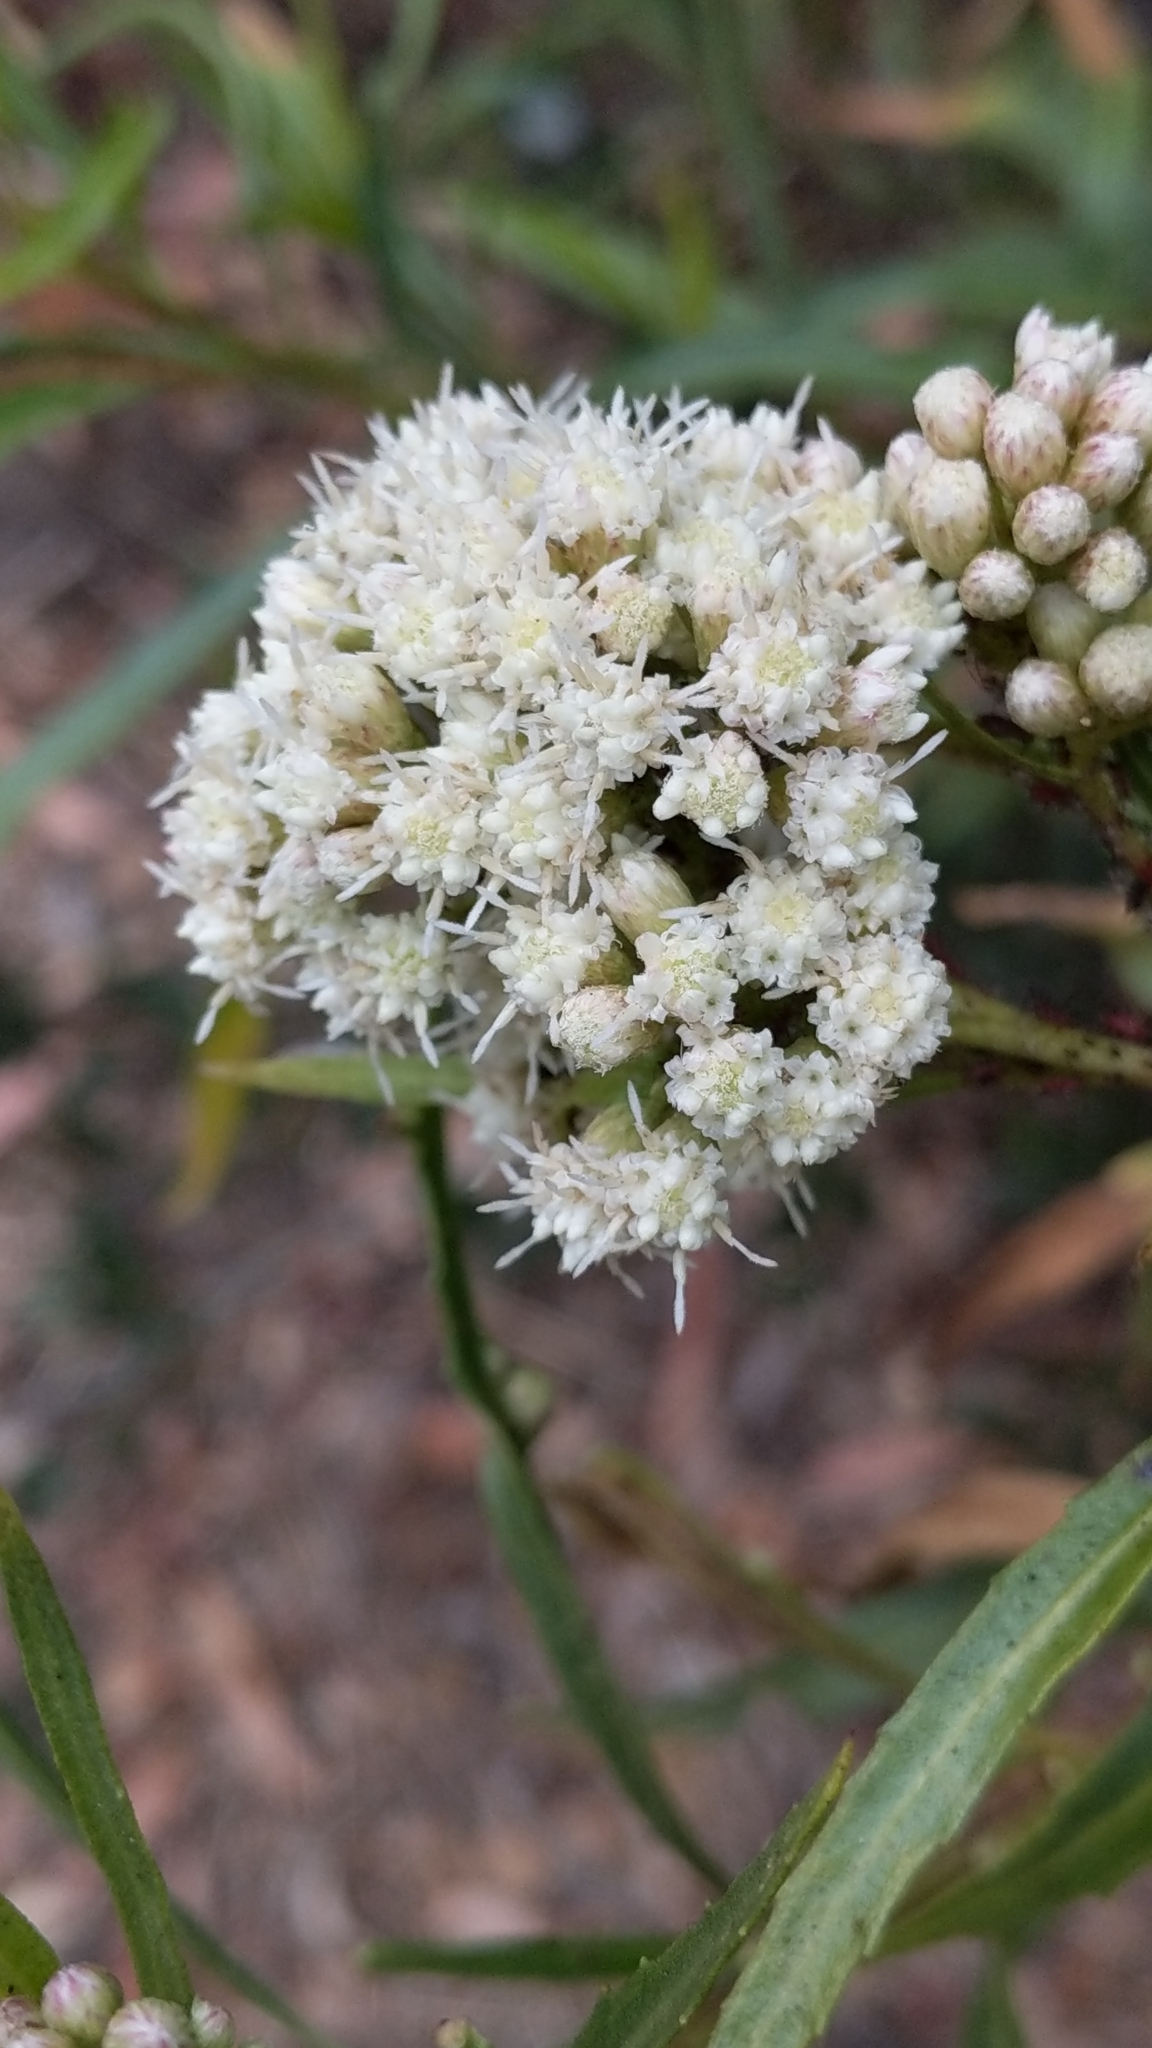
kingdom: Plantae
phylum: Tracheophyta
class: Magnoliopsida
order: Asterales
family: Asteraceae
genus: Baccharis
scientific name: Baccharis salicifolia
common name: Sticky baccharis
